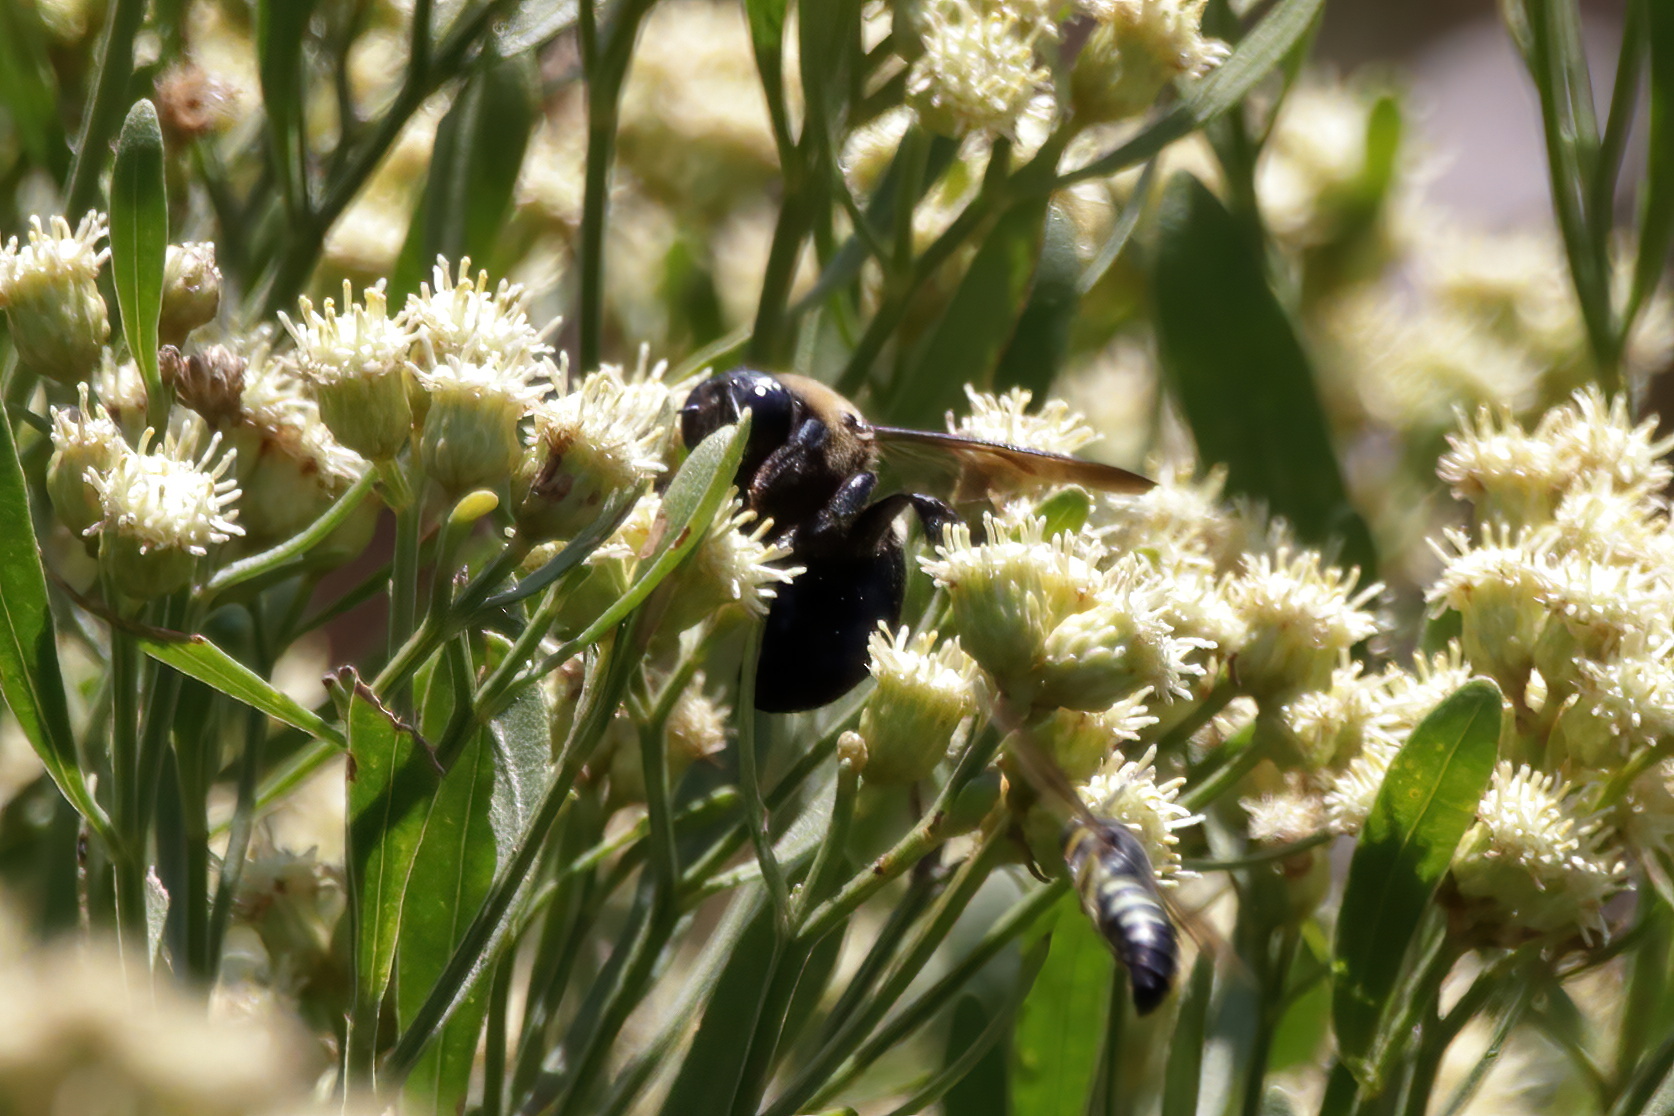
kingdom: Animalia
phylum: Arthropoda
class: Insecta
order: Hymenoptera
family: Apidae
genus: Xylocopa
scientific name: Xylocopa virginica
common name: Carpenter bee
